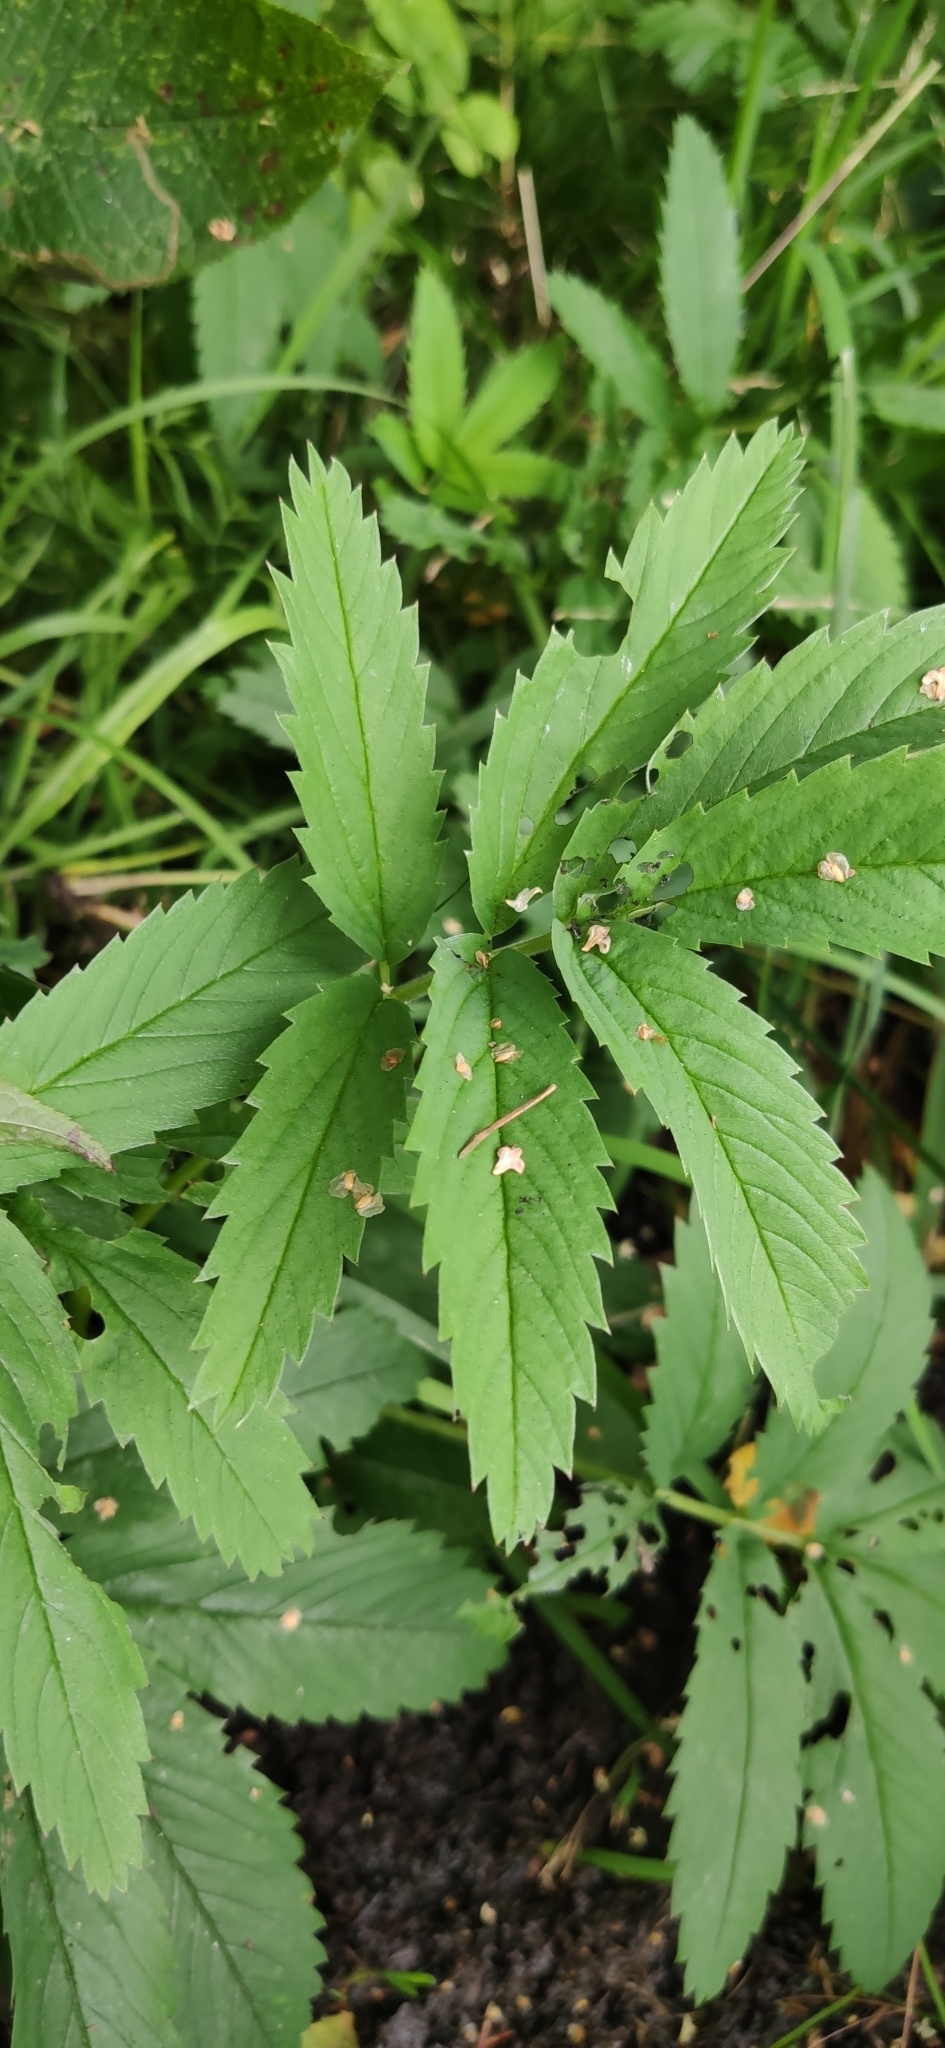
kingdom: Plantae
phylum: Tracheophyta
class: Magnoliopsida
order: Rosales
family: Rosaceae
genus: Comarum
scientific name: Comarum palustre
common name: Marsh cinquefoil
